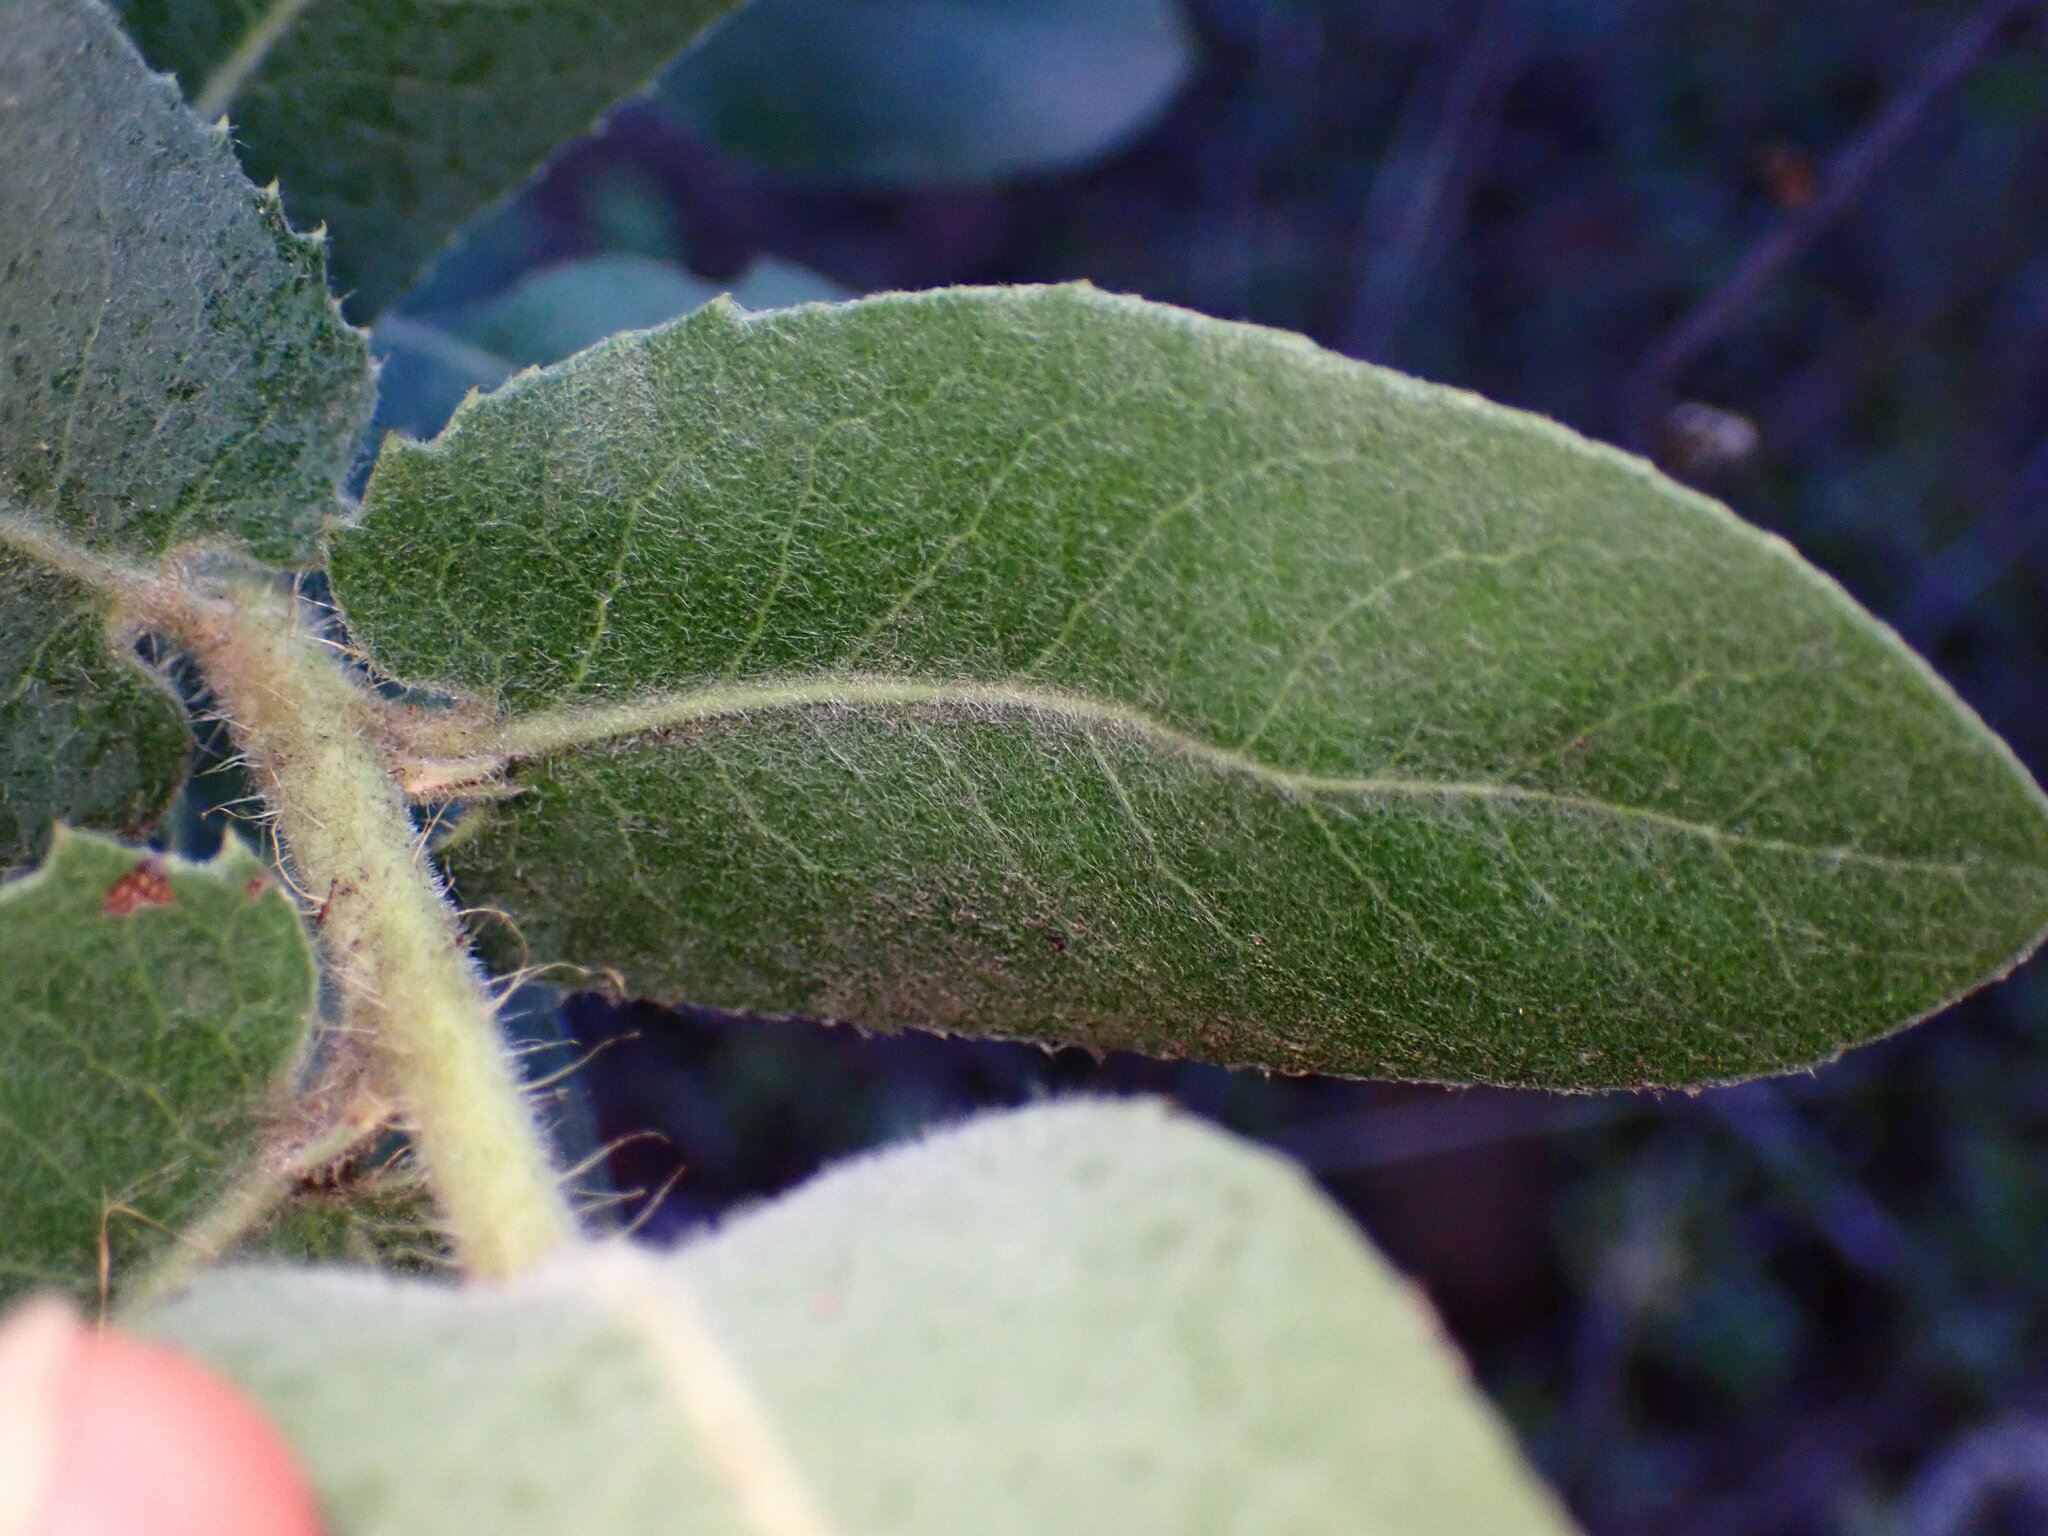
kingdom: Plantae
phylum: Tracheophyta
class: Magnoliopsida
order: Ericales
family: Ericaceae
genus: Arctostaphylos
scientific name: Arctostaphylos regismontana
